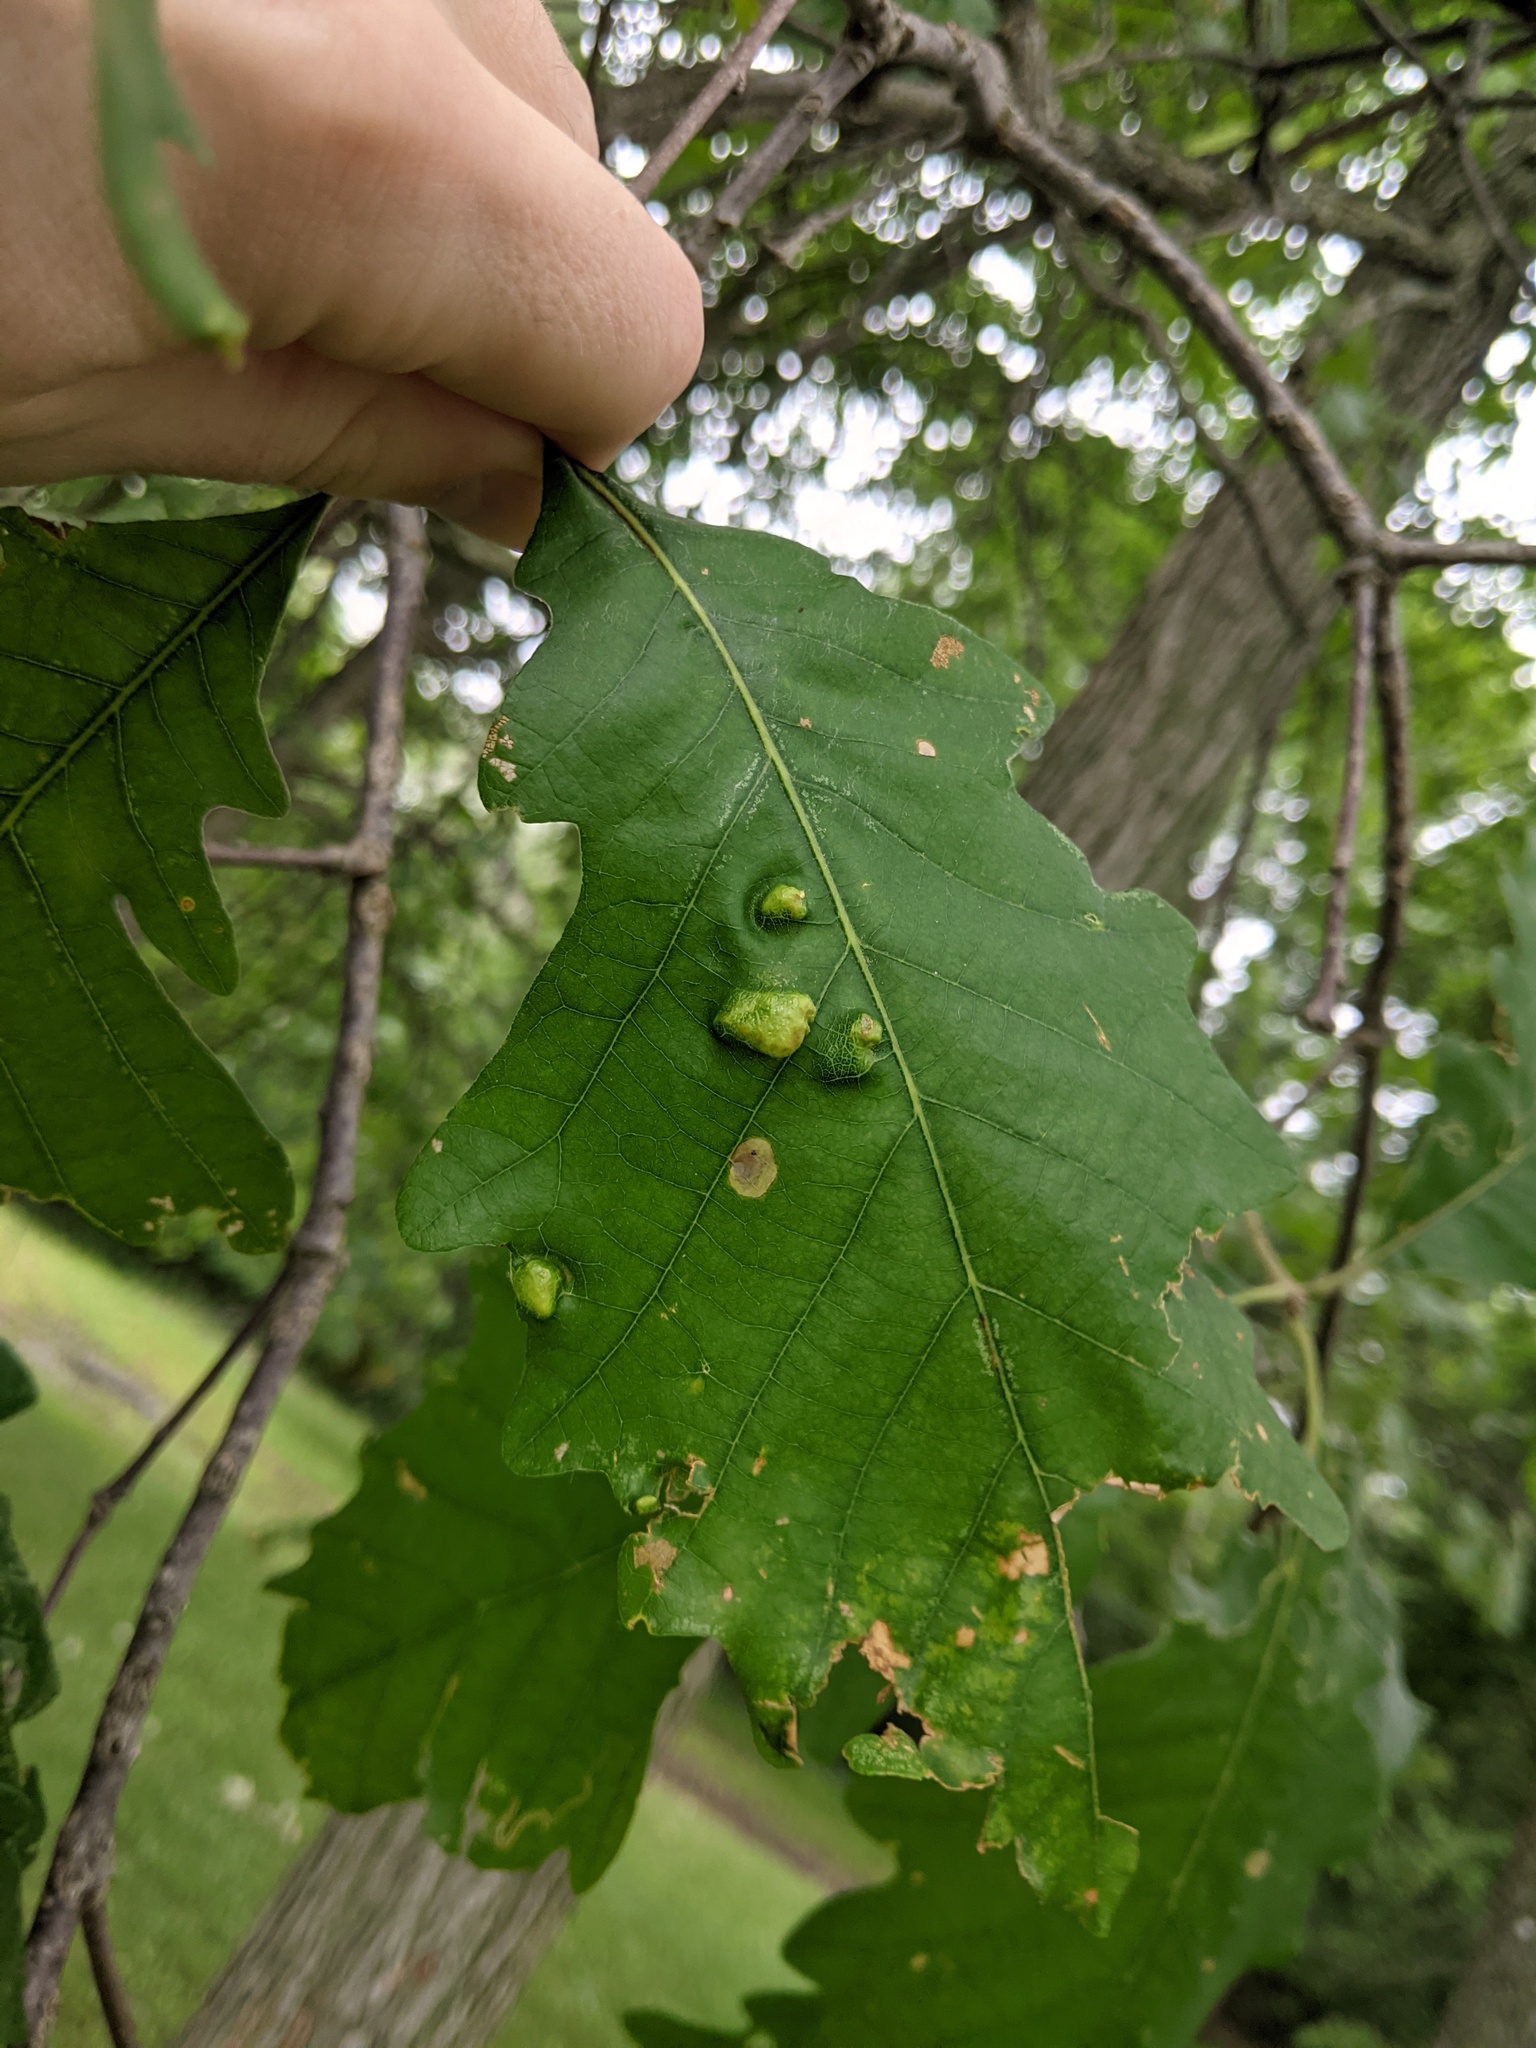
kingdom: Animalia
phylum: Arthropoda
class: Arachnida
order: Trombidiformes
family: Eriophyidae
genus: Aceria
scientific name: Aceria quercina
